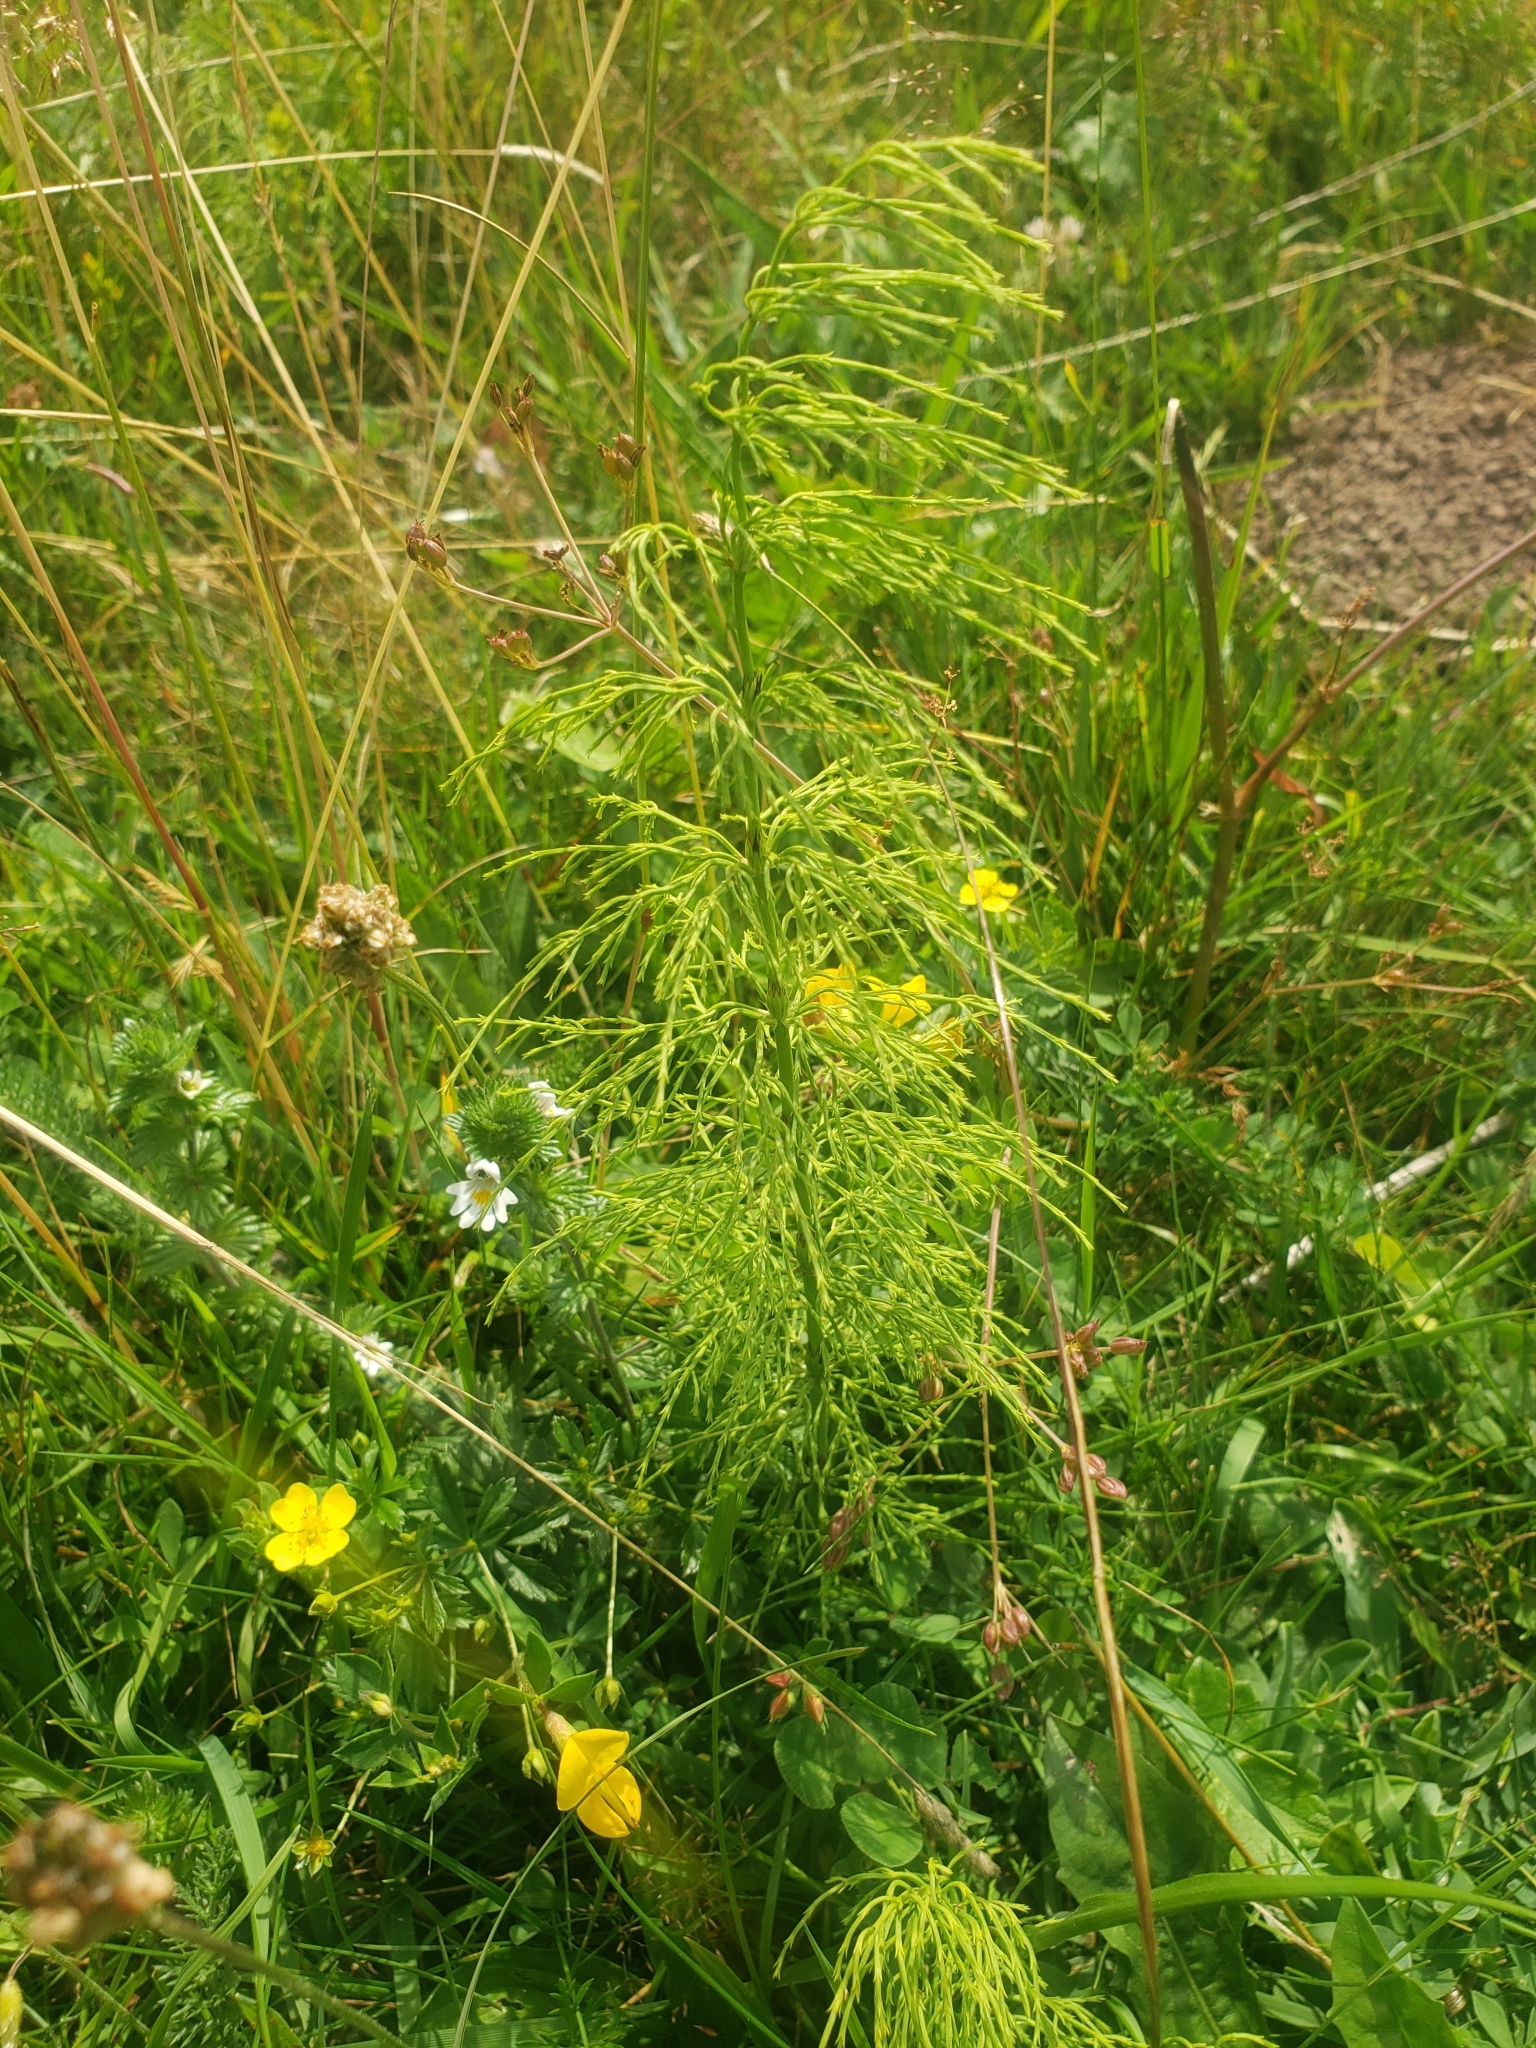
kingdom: Plantae
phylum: Tracheophyta
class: Polypodiopsida
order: Equisetales
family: Equisetaceae
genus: Equisetum
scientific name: Equisetum sylvaticum
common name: Wood horsetail
